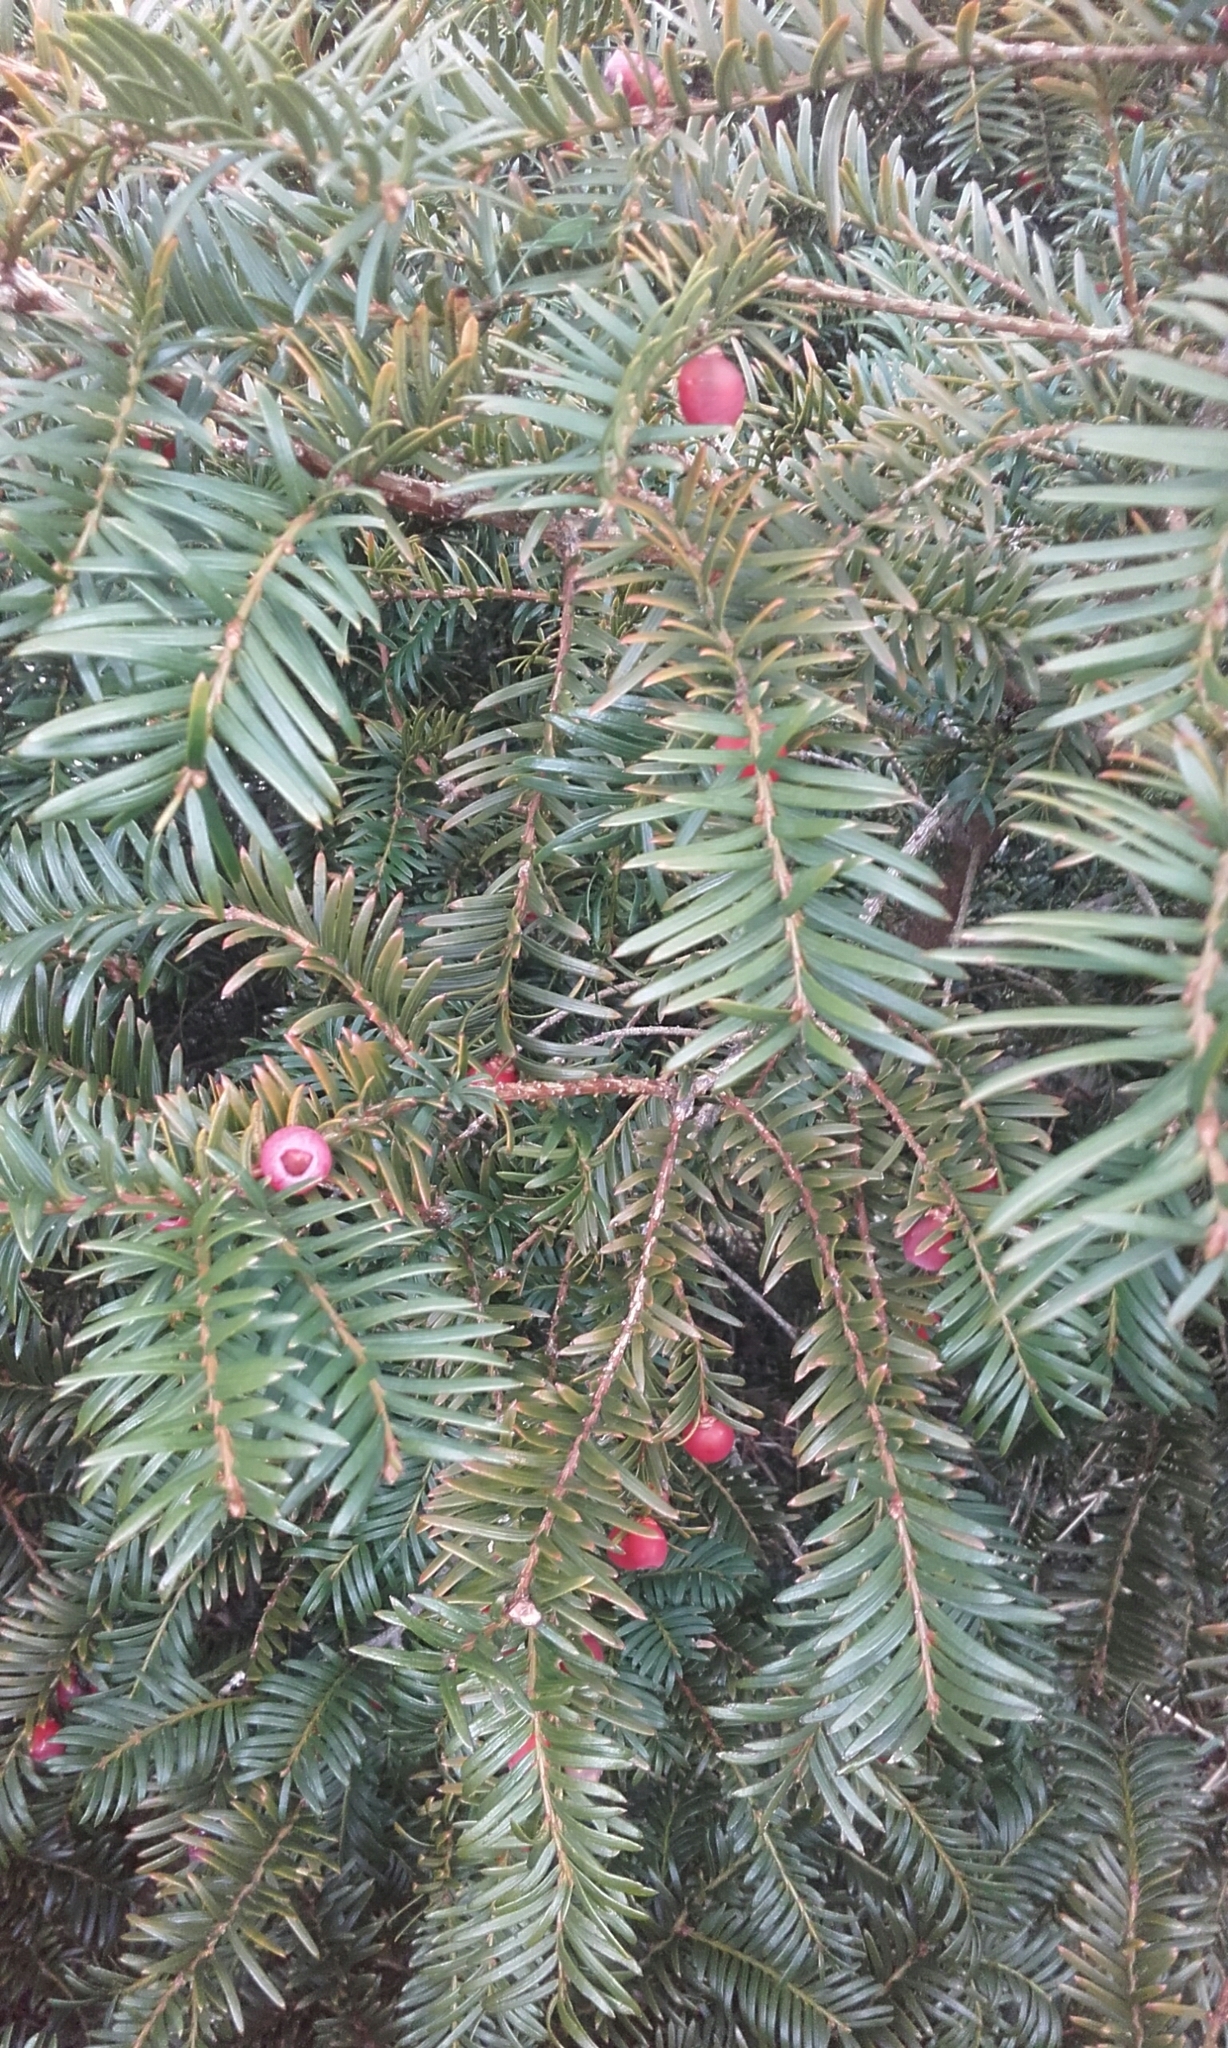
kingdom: Plantae
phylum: Tracheophyta
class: Pinopsida
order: Pinales
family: Taxaceae
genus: Taxus
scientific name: Taxus baccata
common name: Yew
